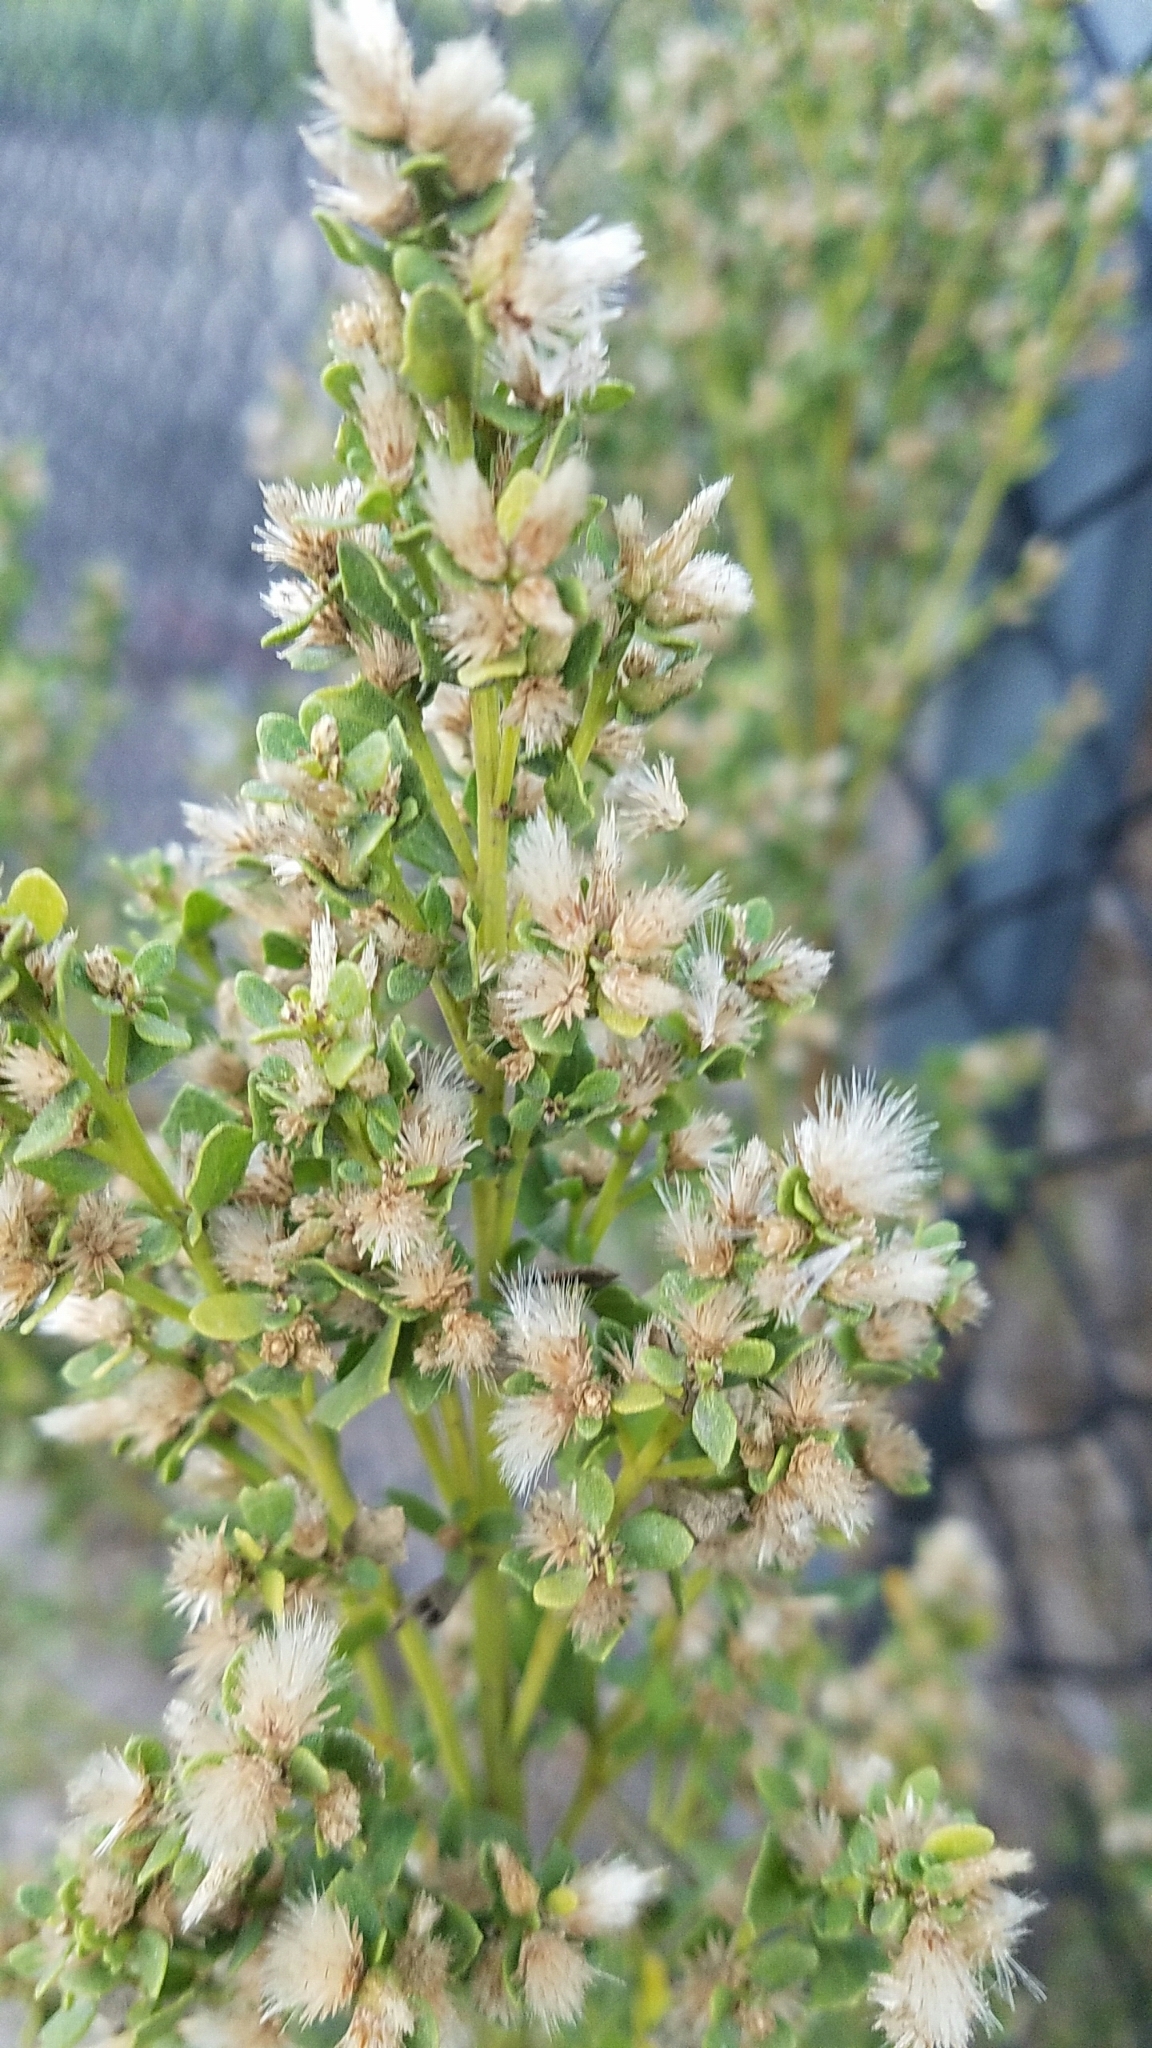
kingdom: Plantae
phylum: Tracheophyta
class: Magnoliopsida
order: Asterales
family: Asteraceae
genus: Baccharis
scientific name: Baccharis pilularis
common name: Coyotebrush
